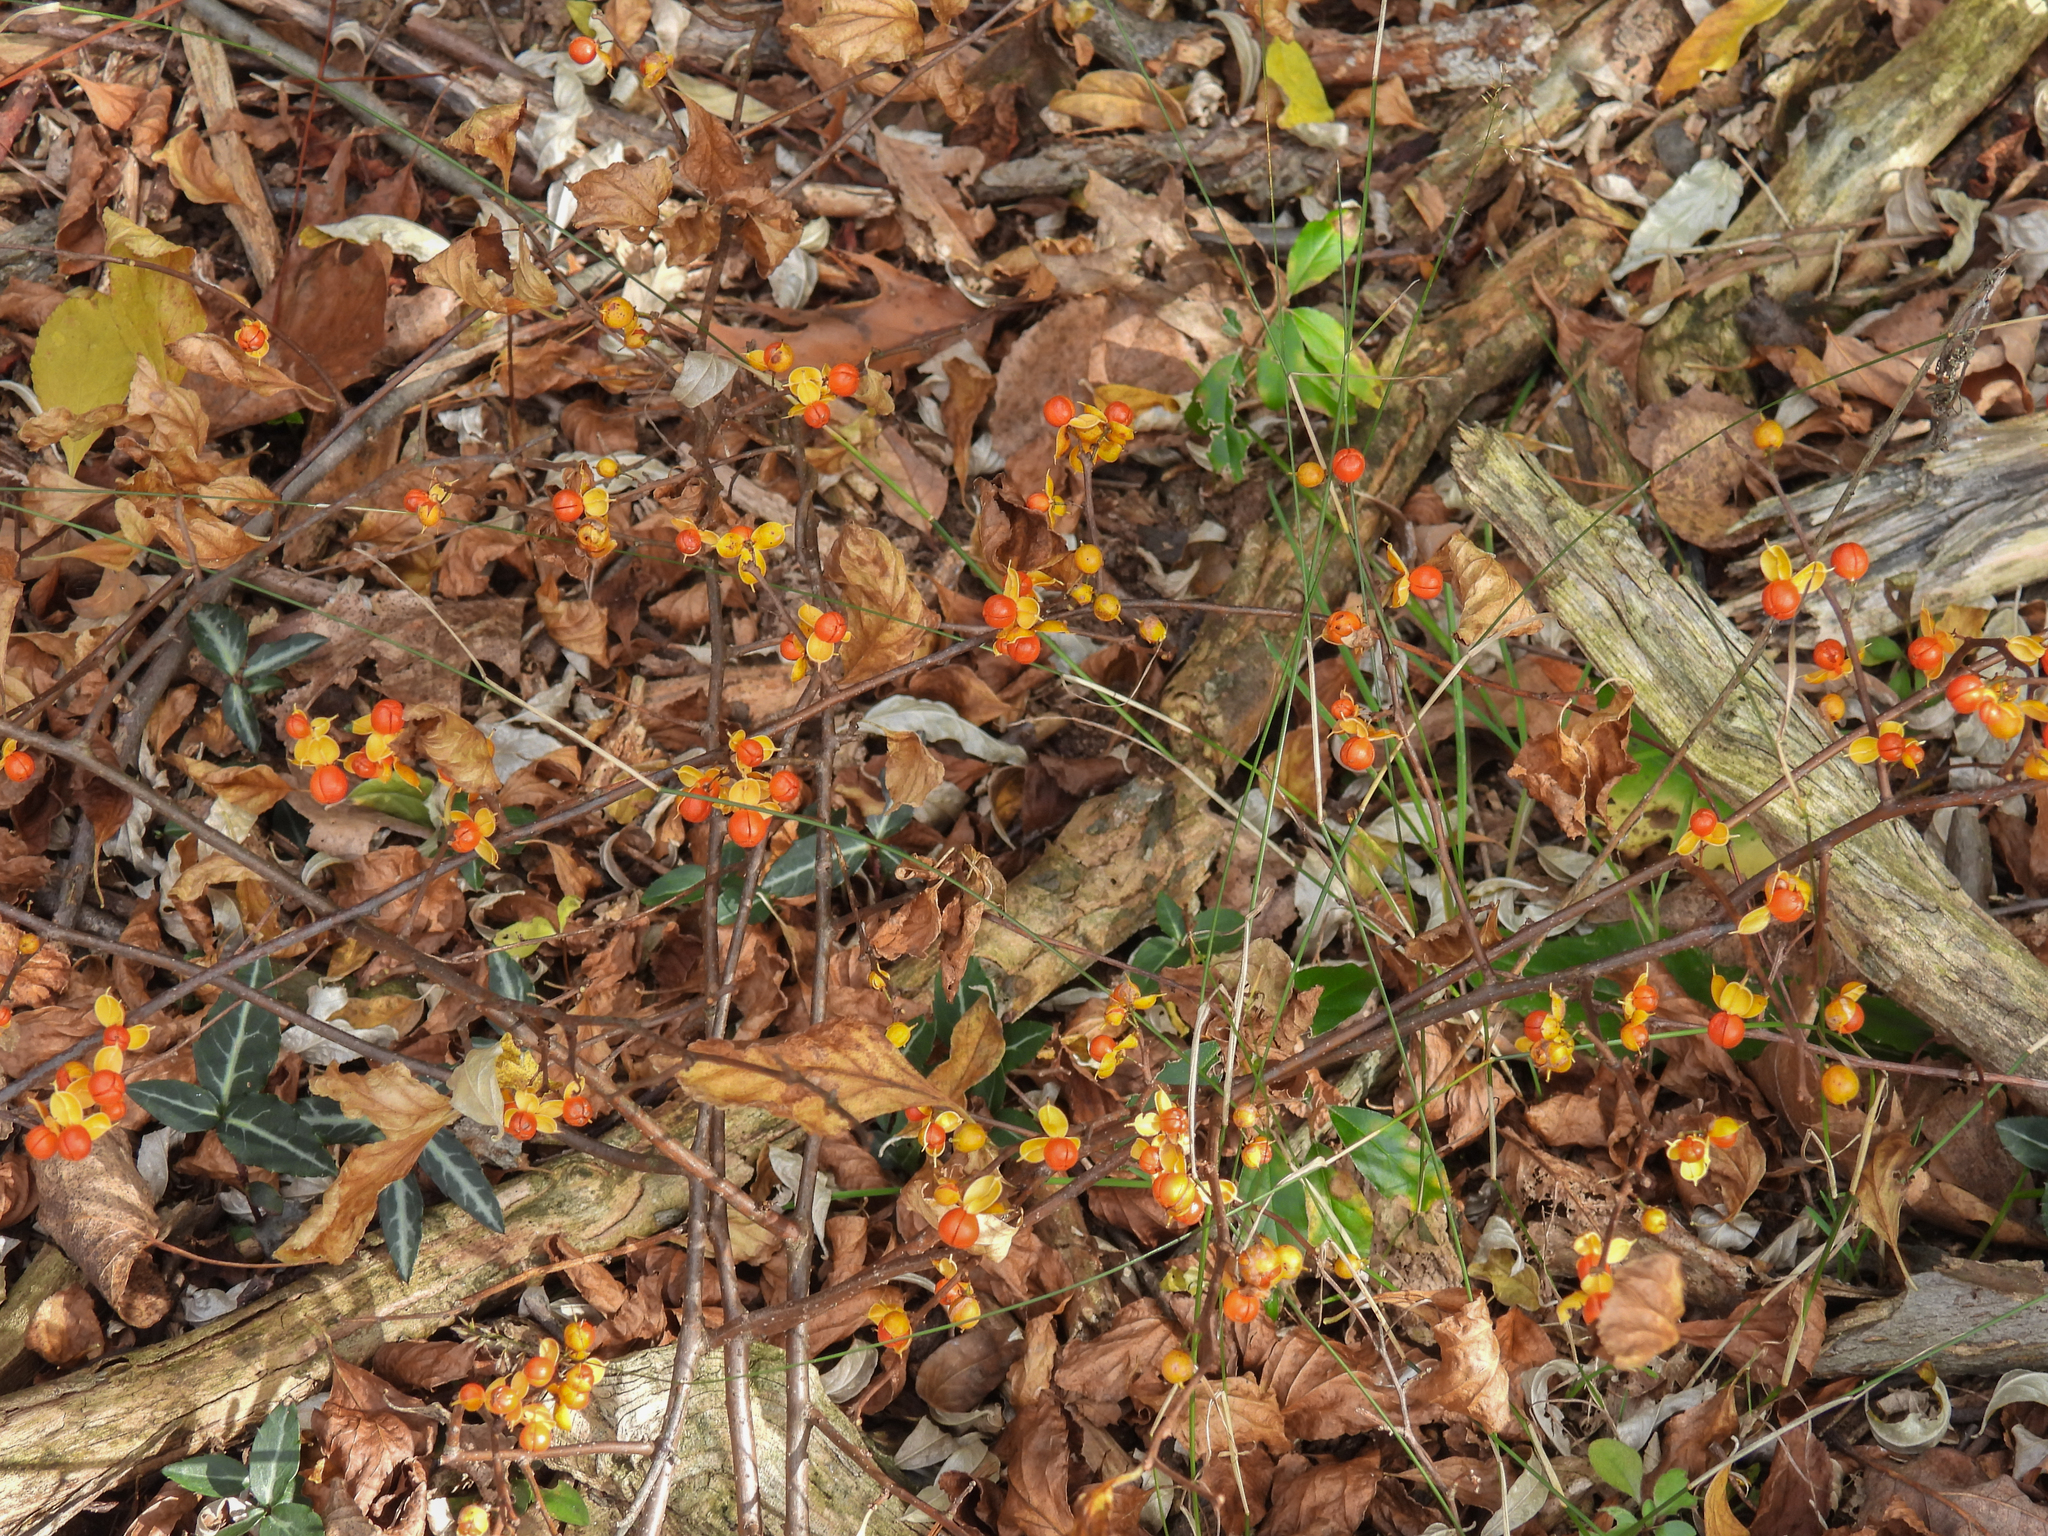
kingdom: Plantae
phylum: Tracheophyta
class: Magnoliopsida
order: Celastrales
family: Celastraceae
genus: Celastrus
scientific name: Celastrus orbiculatus
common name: Oriental bittersweet
